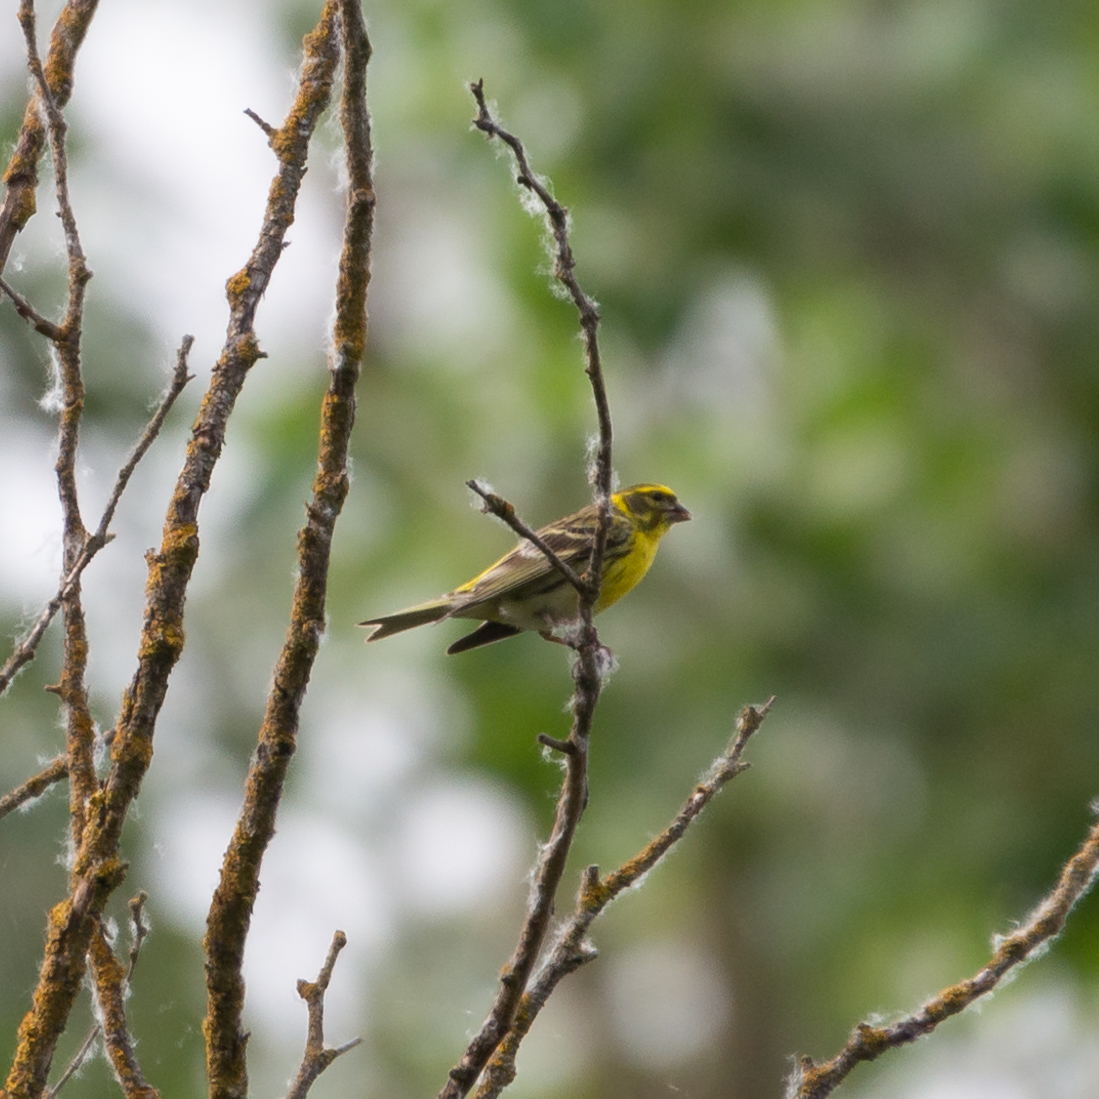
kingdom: Animalia
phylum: Chordata
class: Aves
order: Passeriformes
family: Fringillidae
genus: Serinus
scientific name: Serinus serinus
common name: European serin
